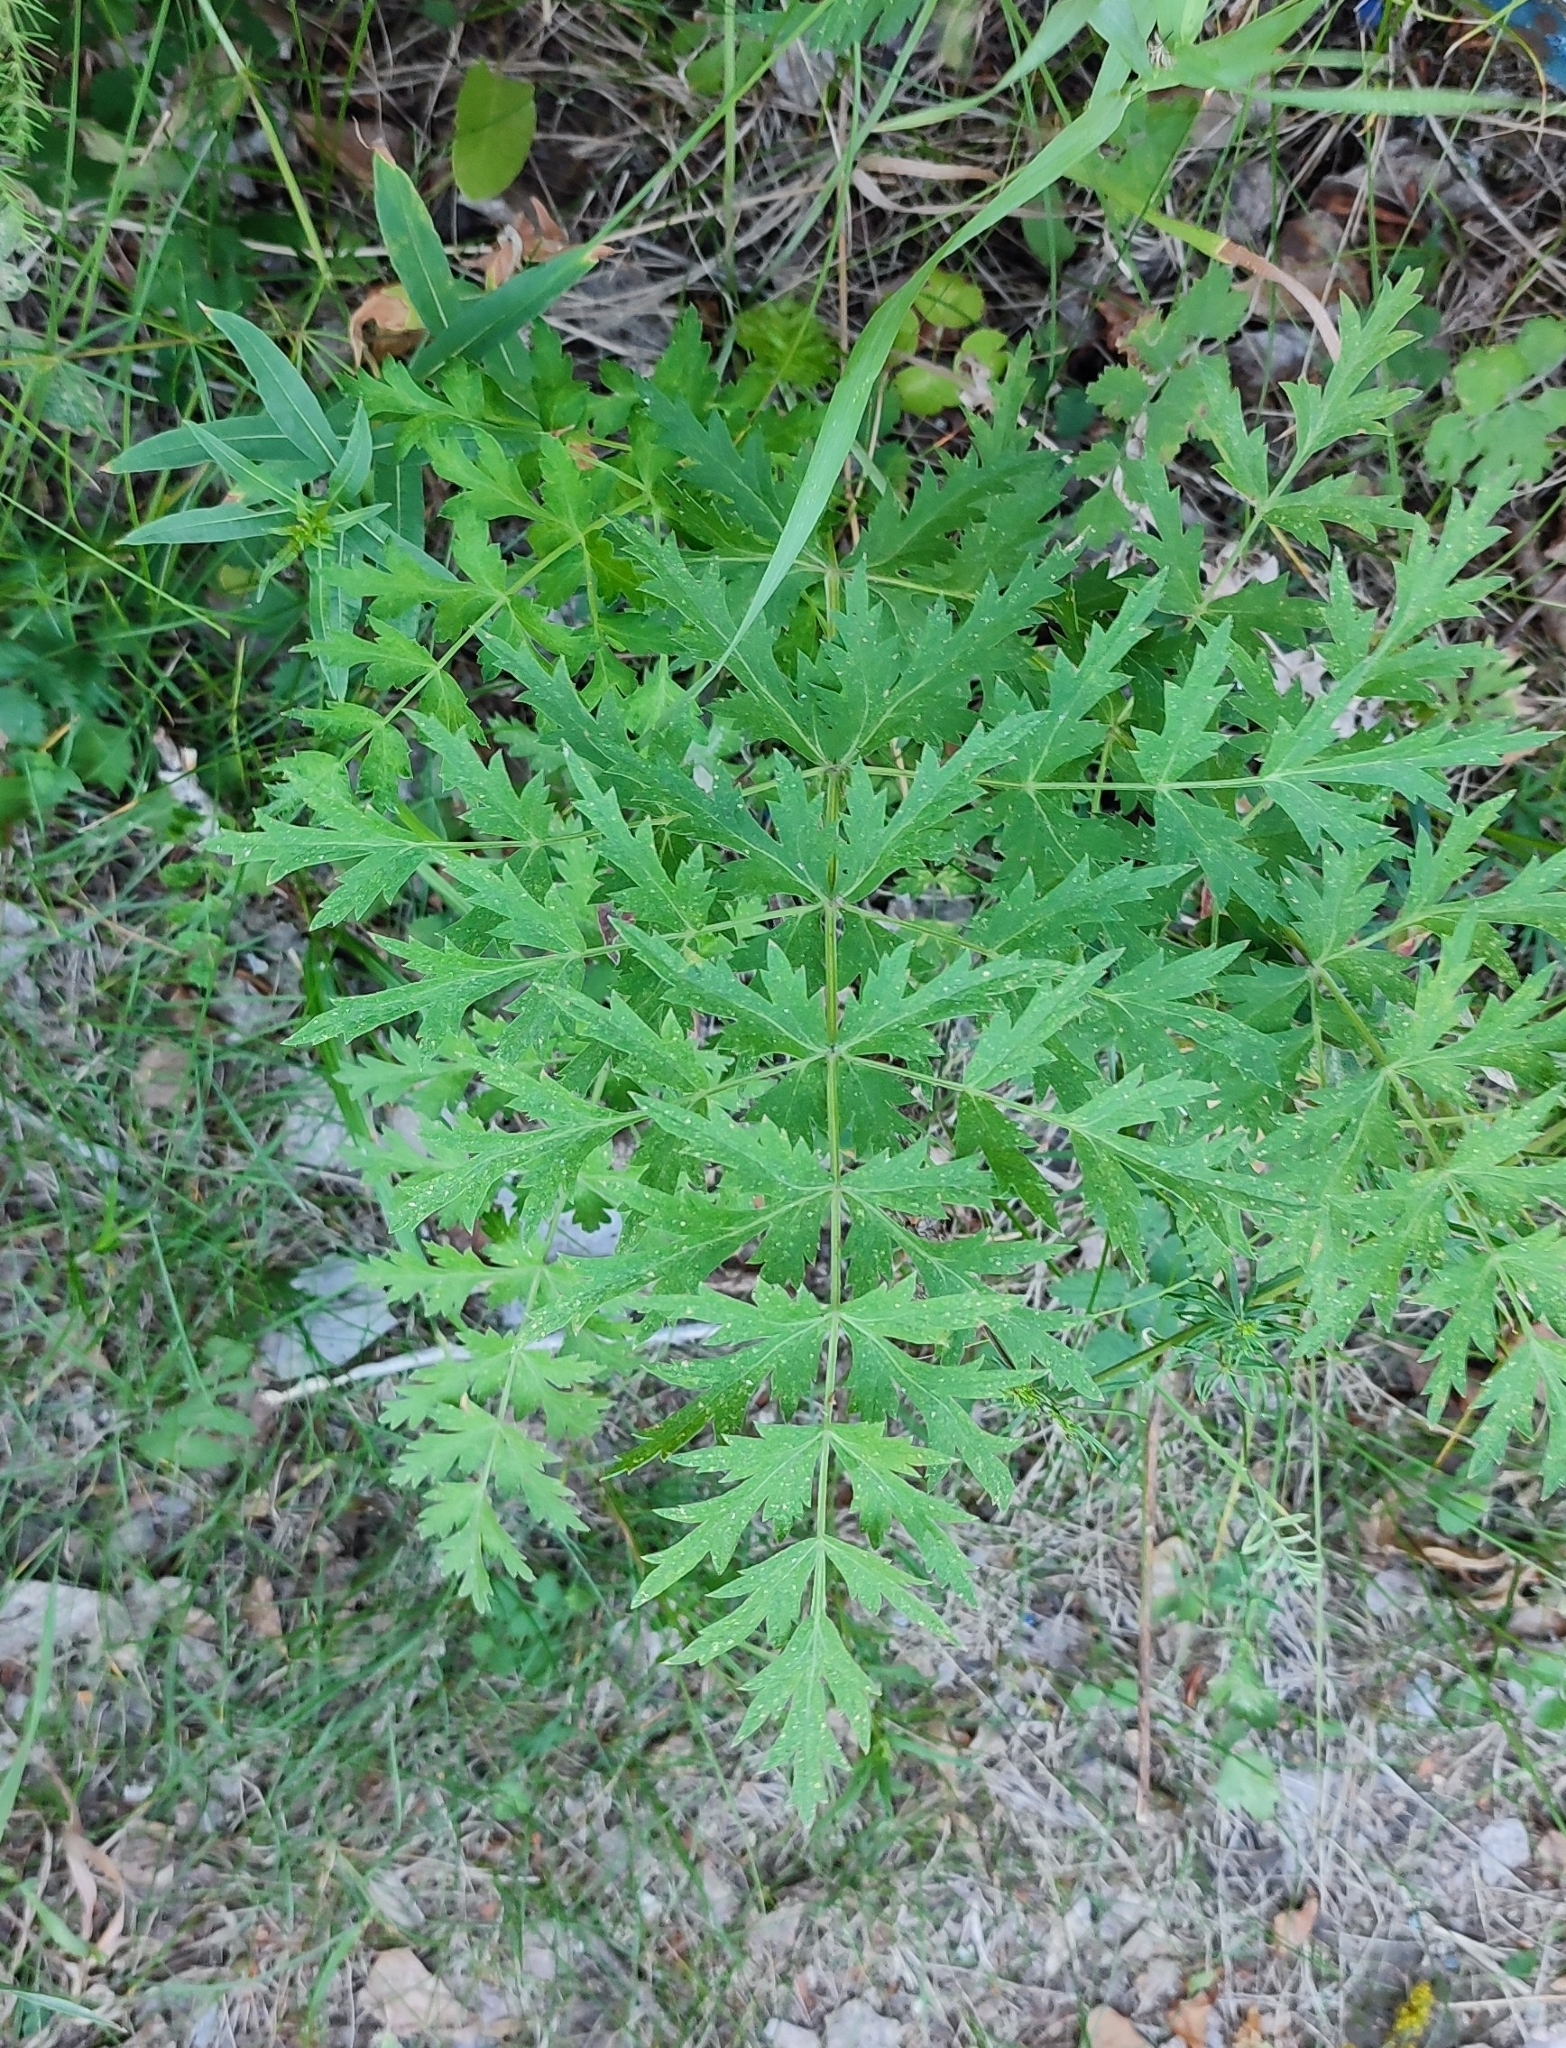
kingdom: Plantae
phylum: Tracheophyta
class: Magnoliopsida
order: Apiales
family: Apiaceae
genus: Seseli
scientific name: Seseli libanotis
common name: Mooncarrot
